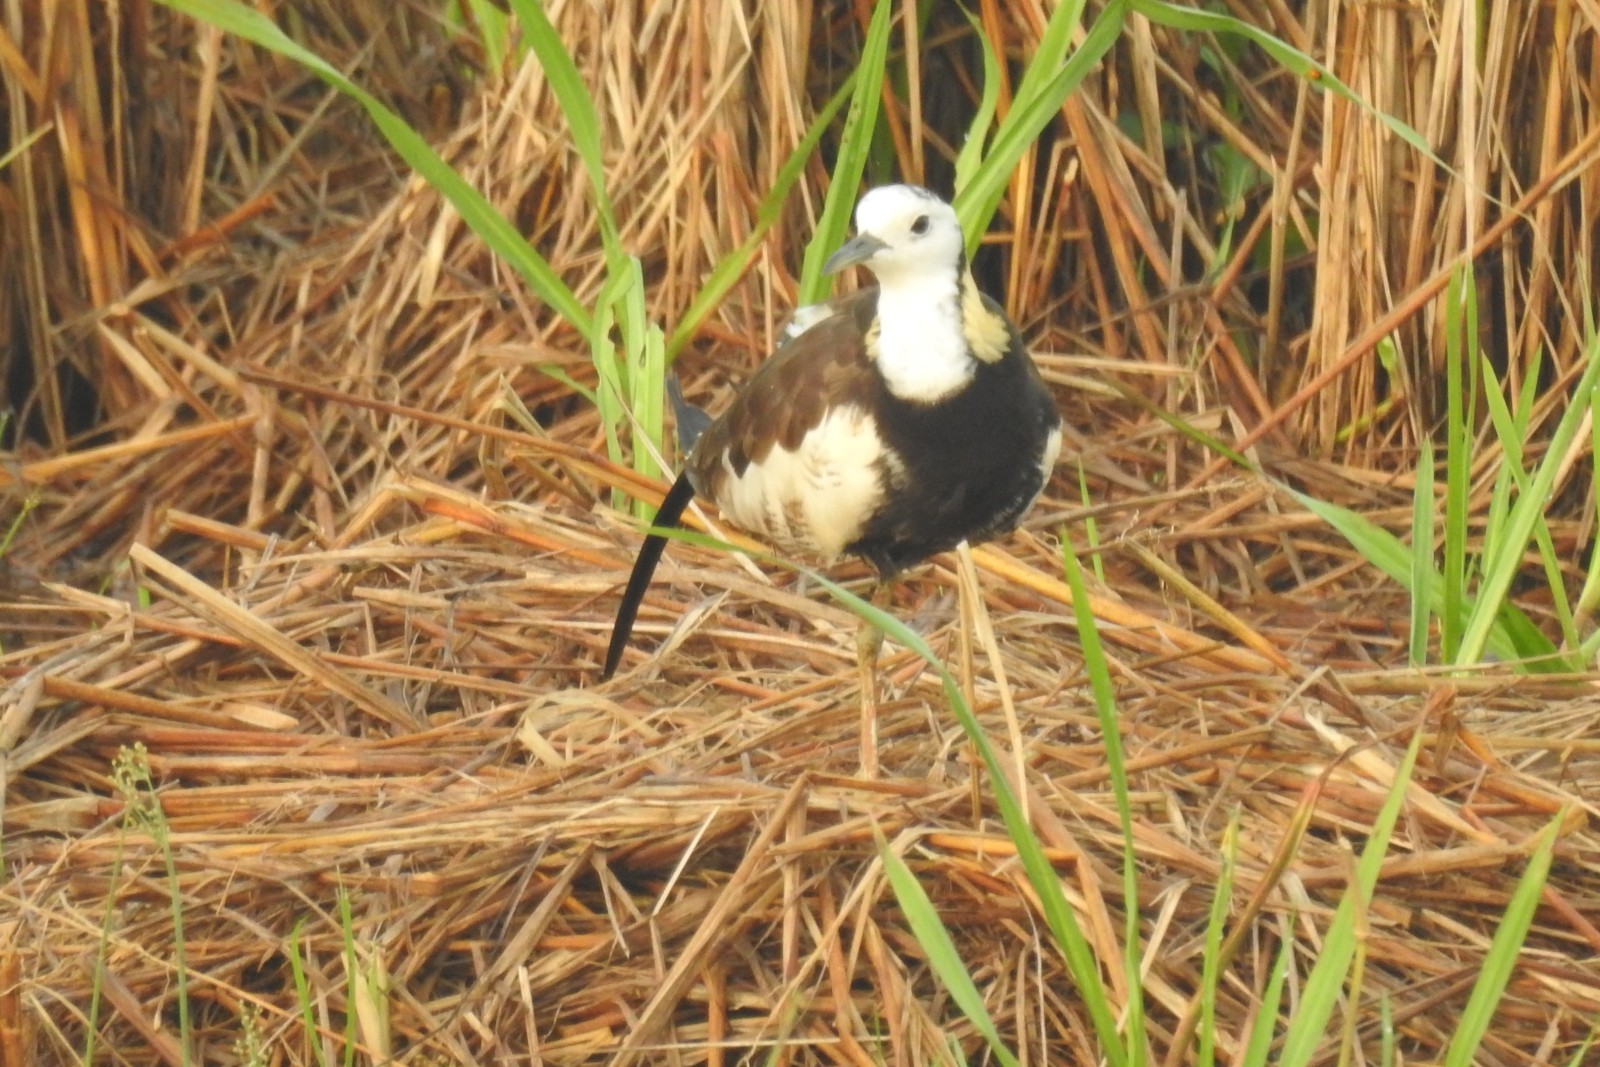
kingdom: Animalia
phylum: Chordata
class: Aves
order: Charadriiformes
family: Jacanidae
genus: Hydrophasianus
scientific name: Hydrophasianus chirurgus
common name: Pheasant-tailed jacana
